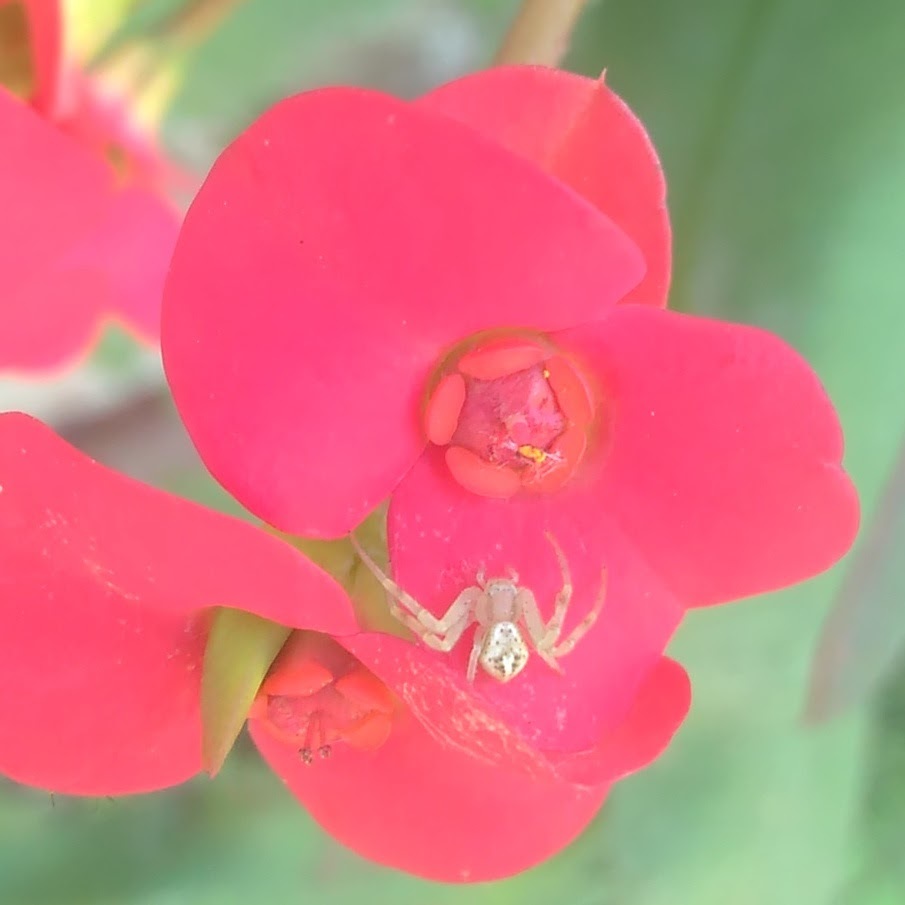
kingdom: Animalia
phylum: Arthropoda
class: Arachnida
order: Araneae
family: Thomisidae
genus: Misumenops
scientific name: Misumenops
